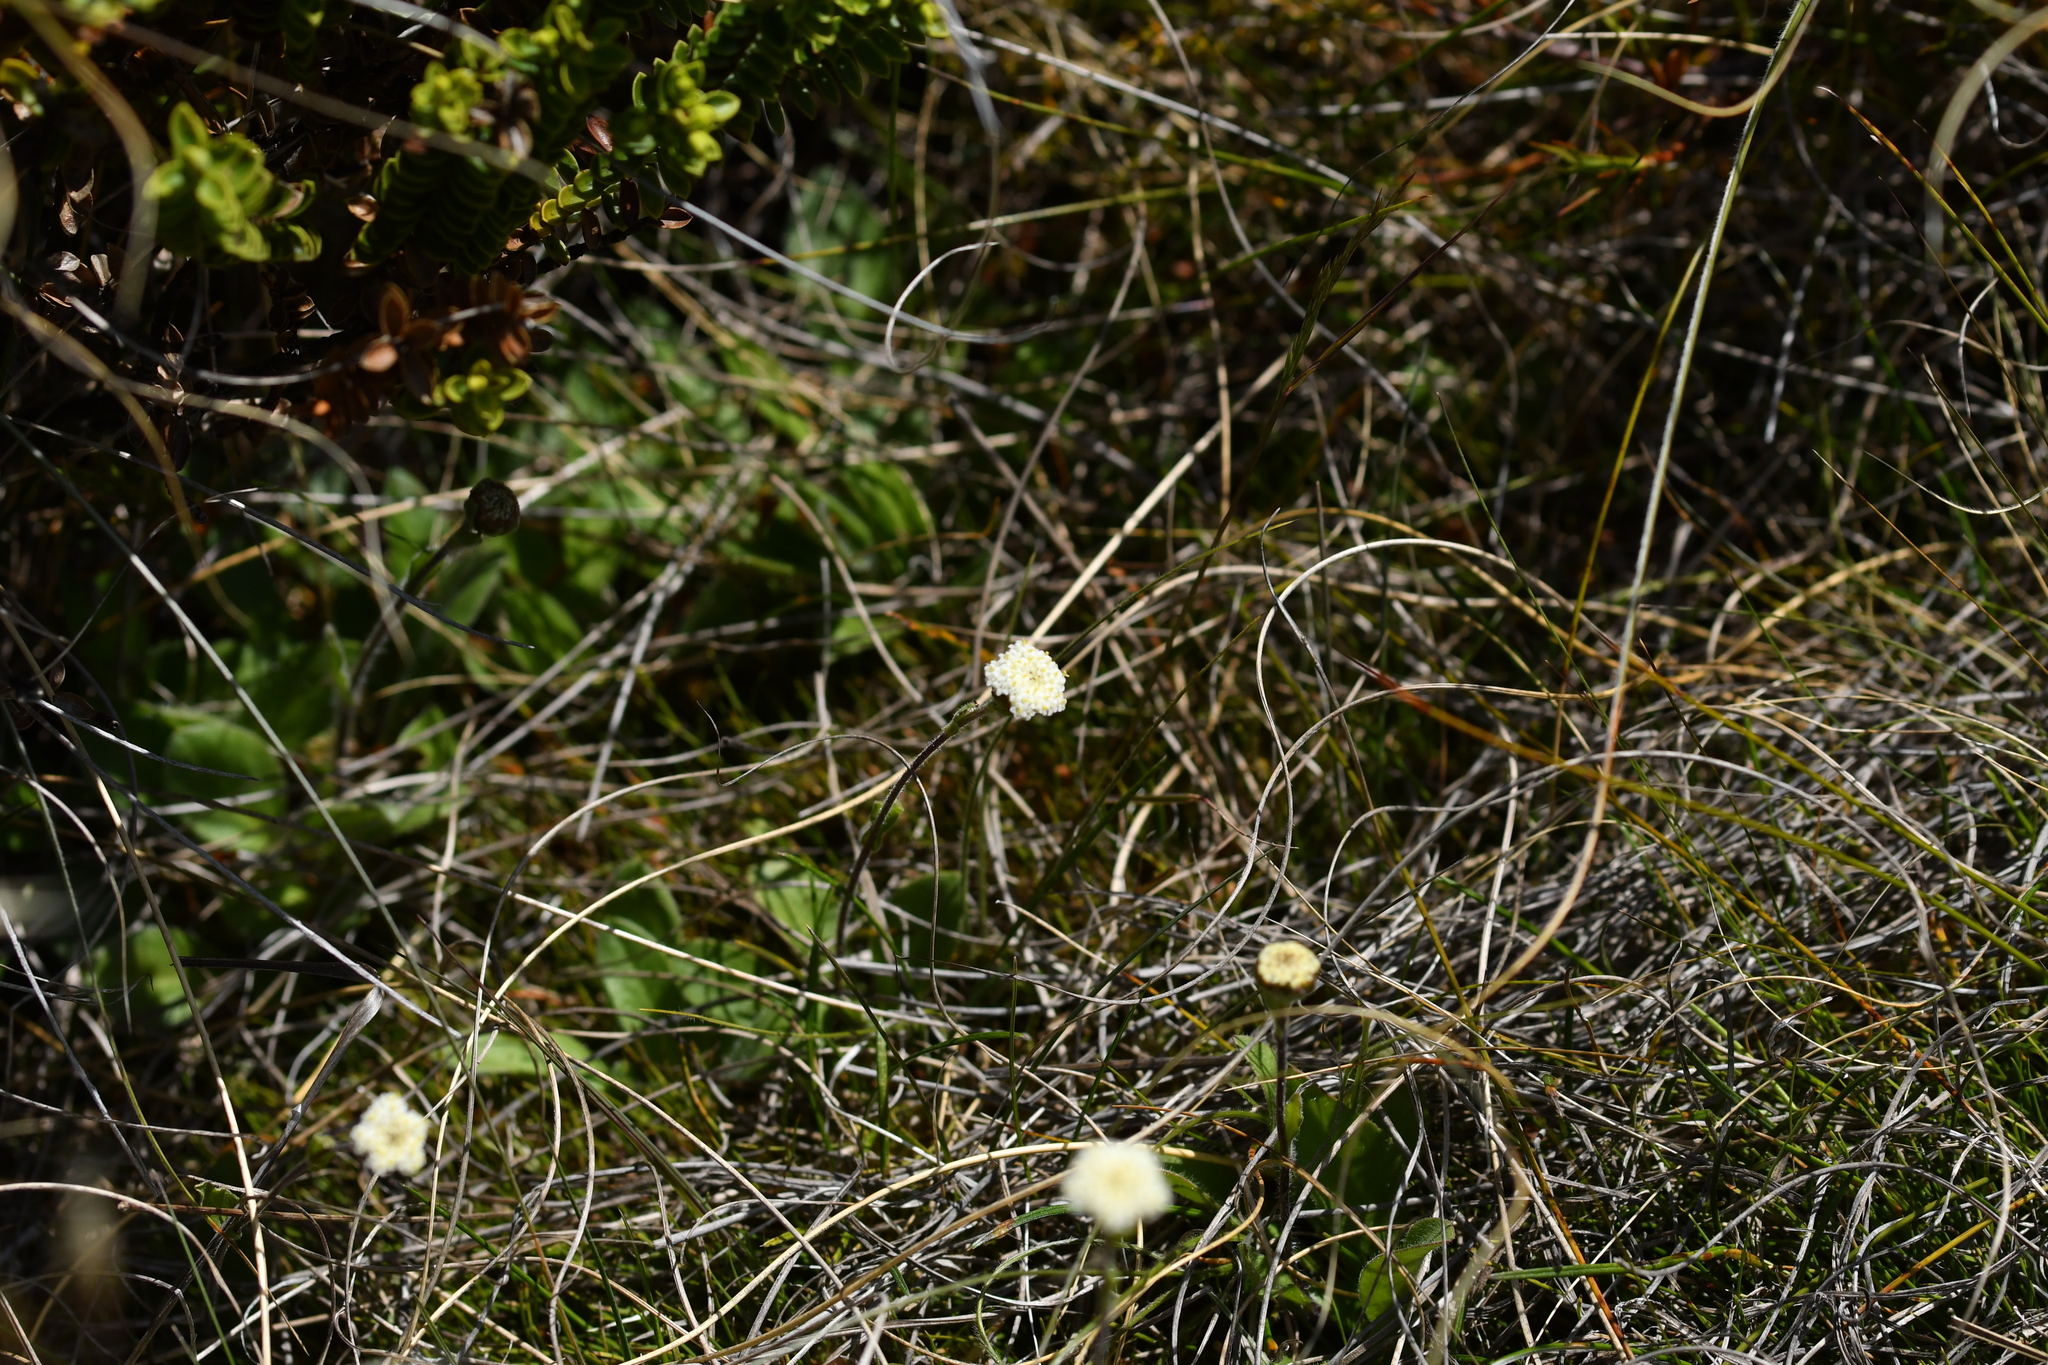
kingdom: Plantae
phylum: Tracheophyta
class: Magnoliopsida
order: Asterales
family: Asteraceae
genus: Craspedia
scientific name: Craspedia uniflora
